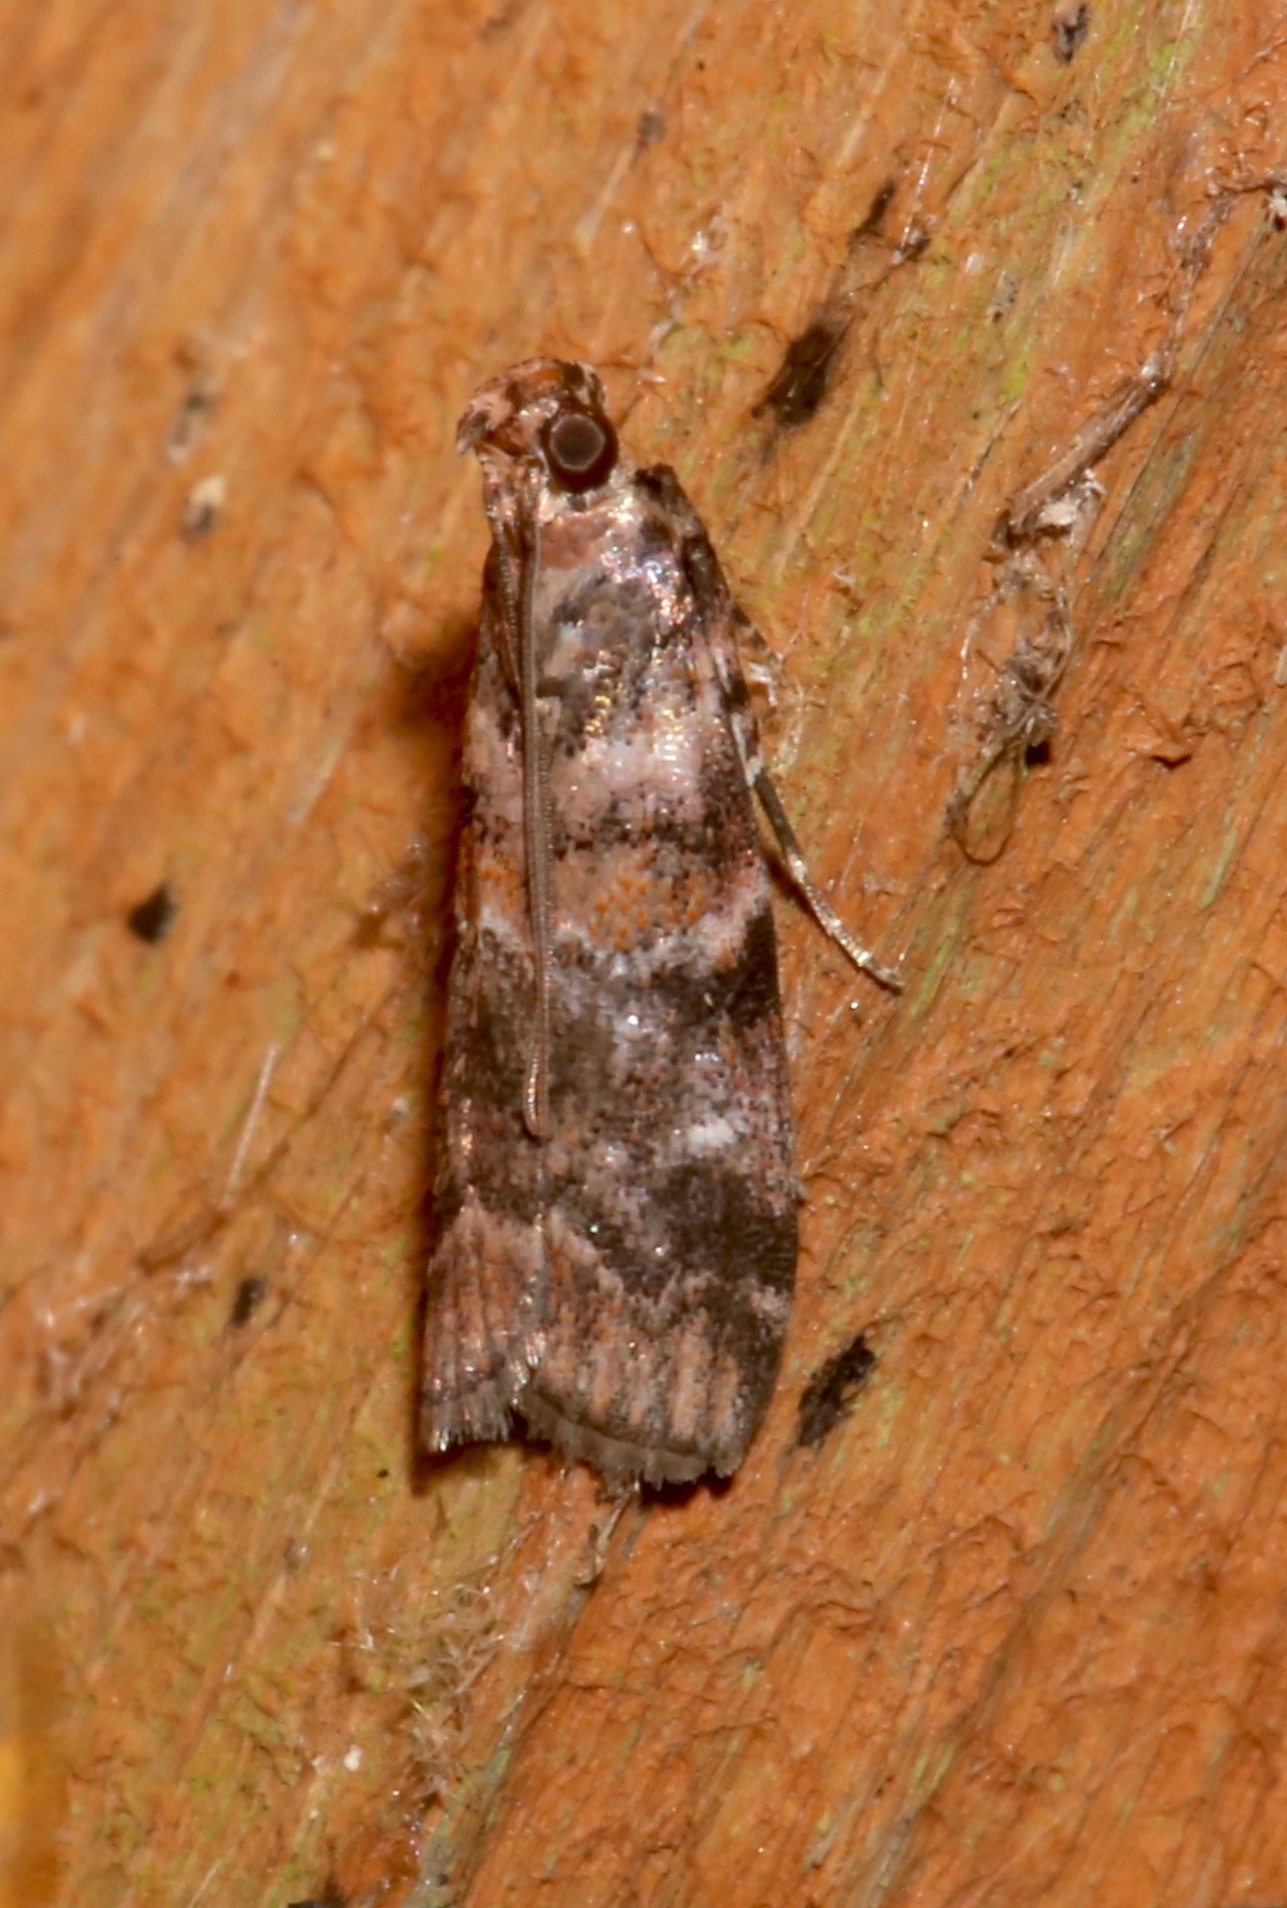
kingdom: Animalia
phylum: Arthropoda
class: Insecta
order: Lepidoptera
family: Pyralidae
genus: Dioryctria
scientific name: Dioryctria pygmaeella
